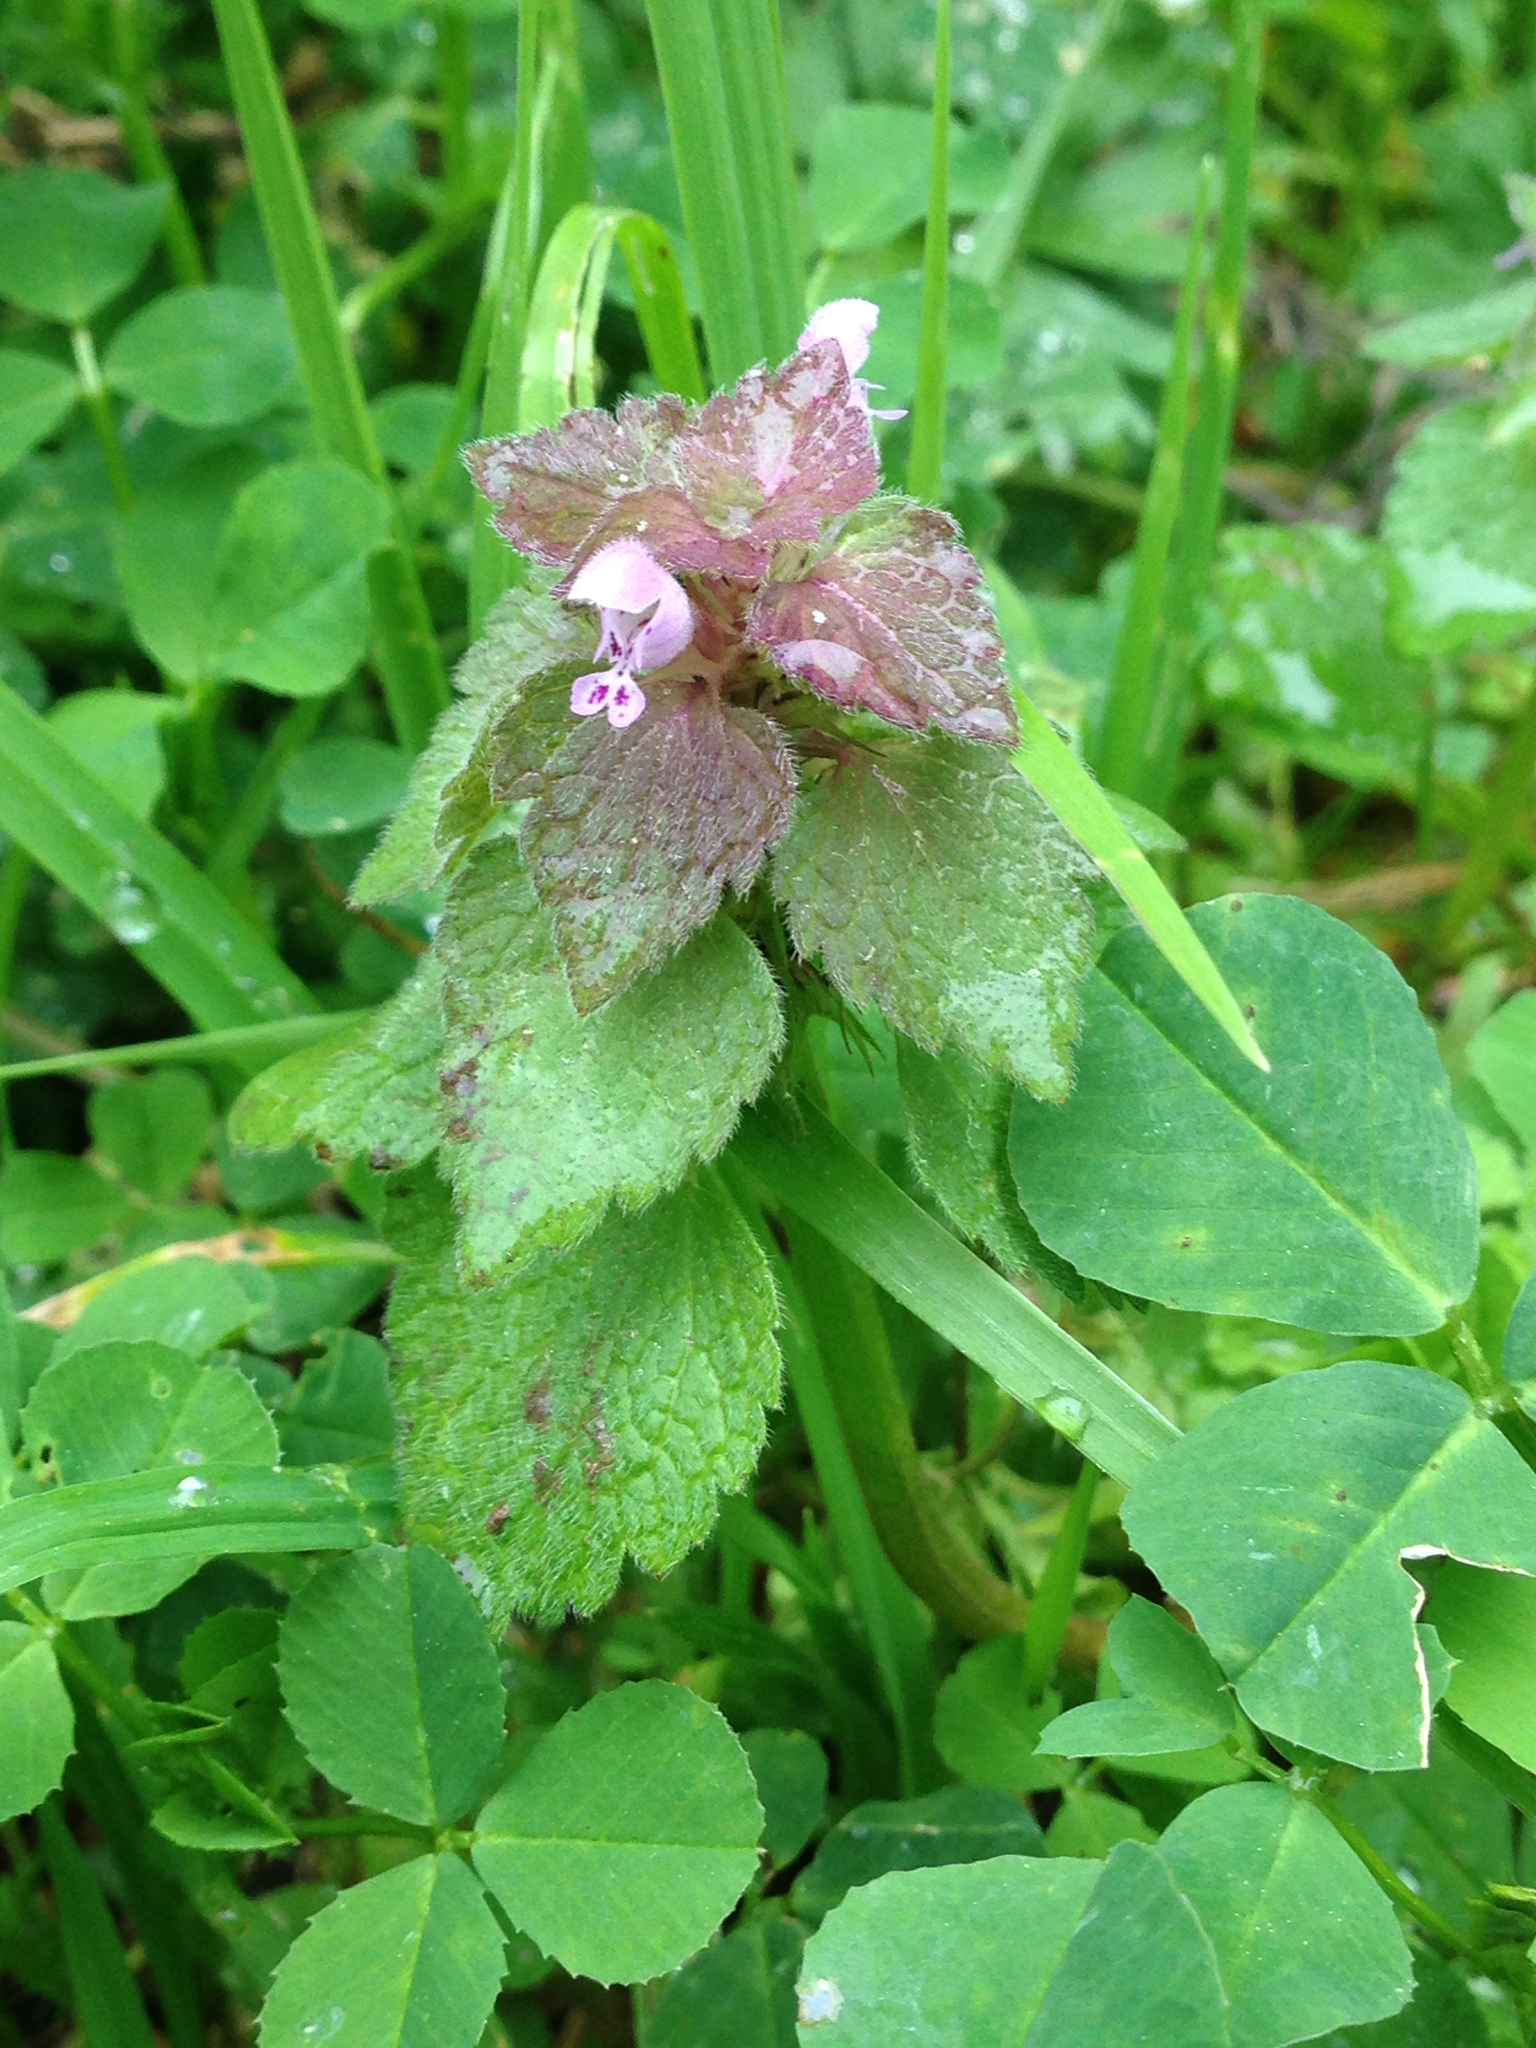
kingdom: Plantae
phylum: Tracheophyta
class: Magnoliopsida
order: Lamiales
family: Lamiaceae
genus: Lamium
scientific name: Lamium purpureum
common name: Red dead-nettle
